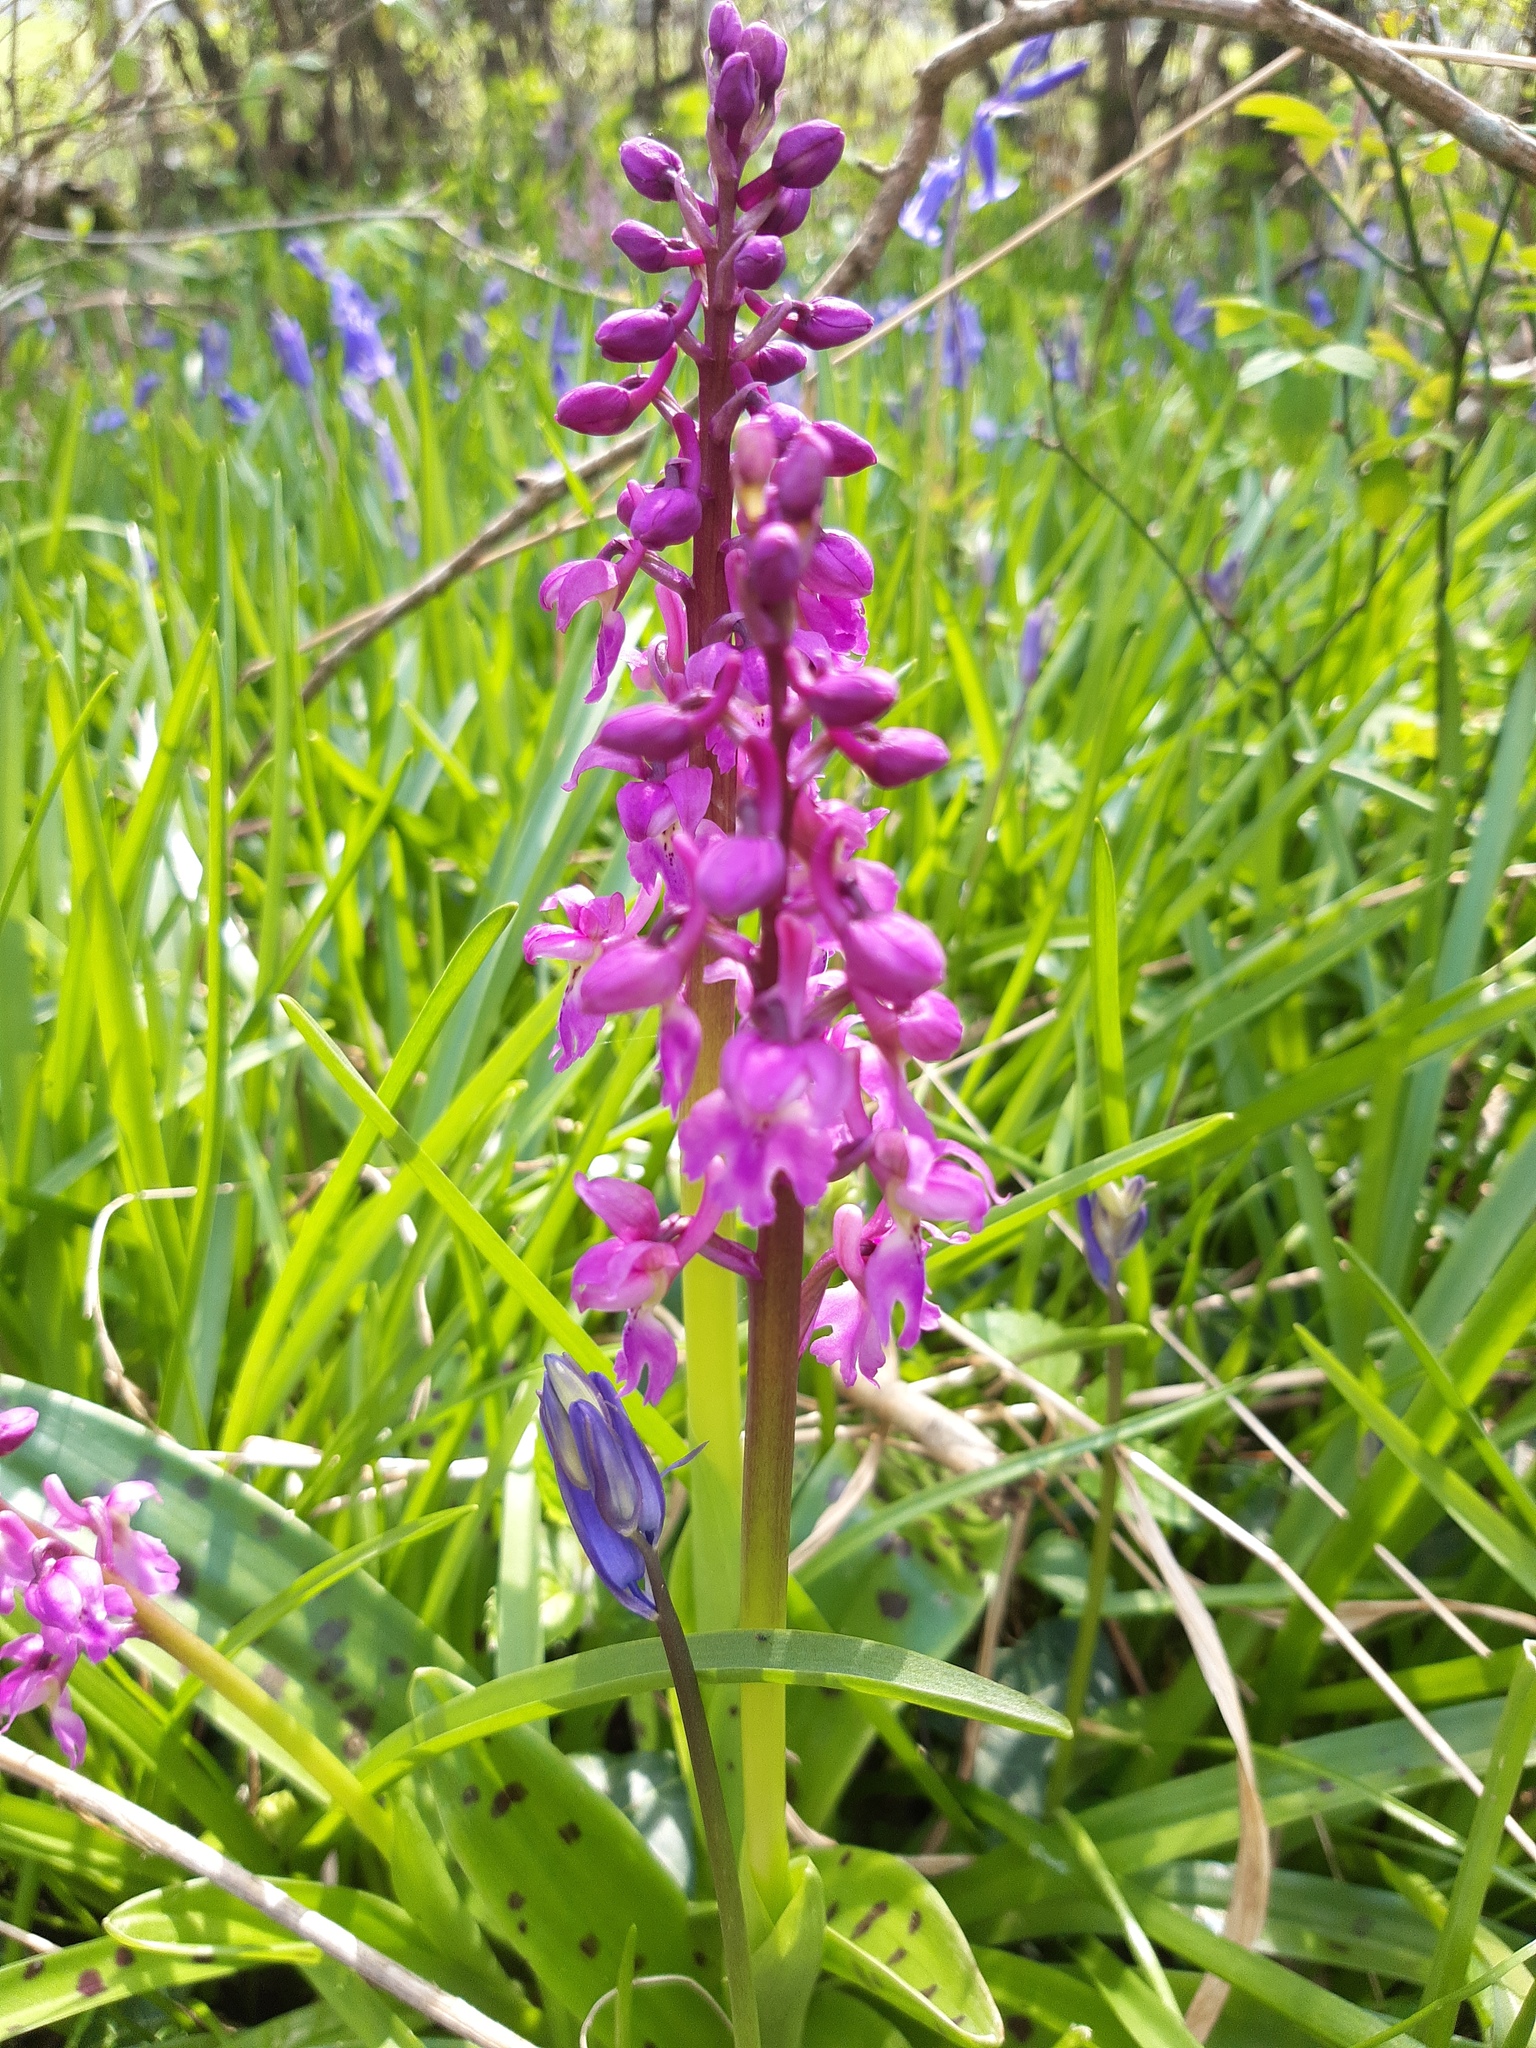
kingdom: Plantae
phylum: Tracheophyta
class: Liliopsida
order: Asparagales
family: Orchidaceae
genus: Orchis
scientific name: Orchis mascula
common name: Early-purple orchid
